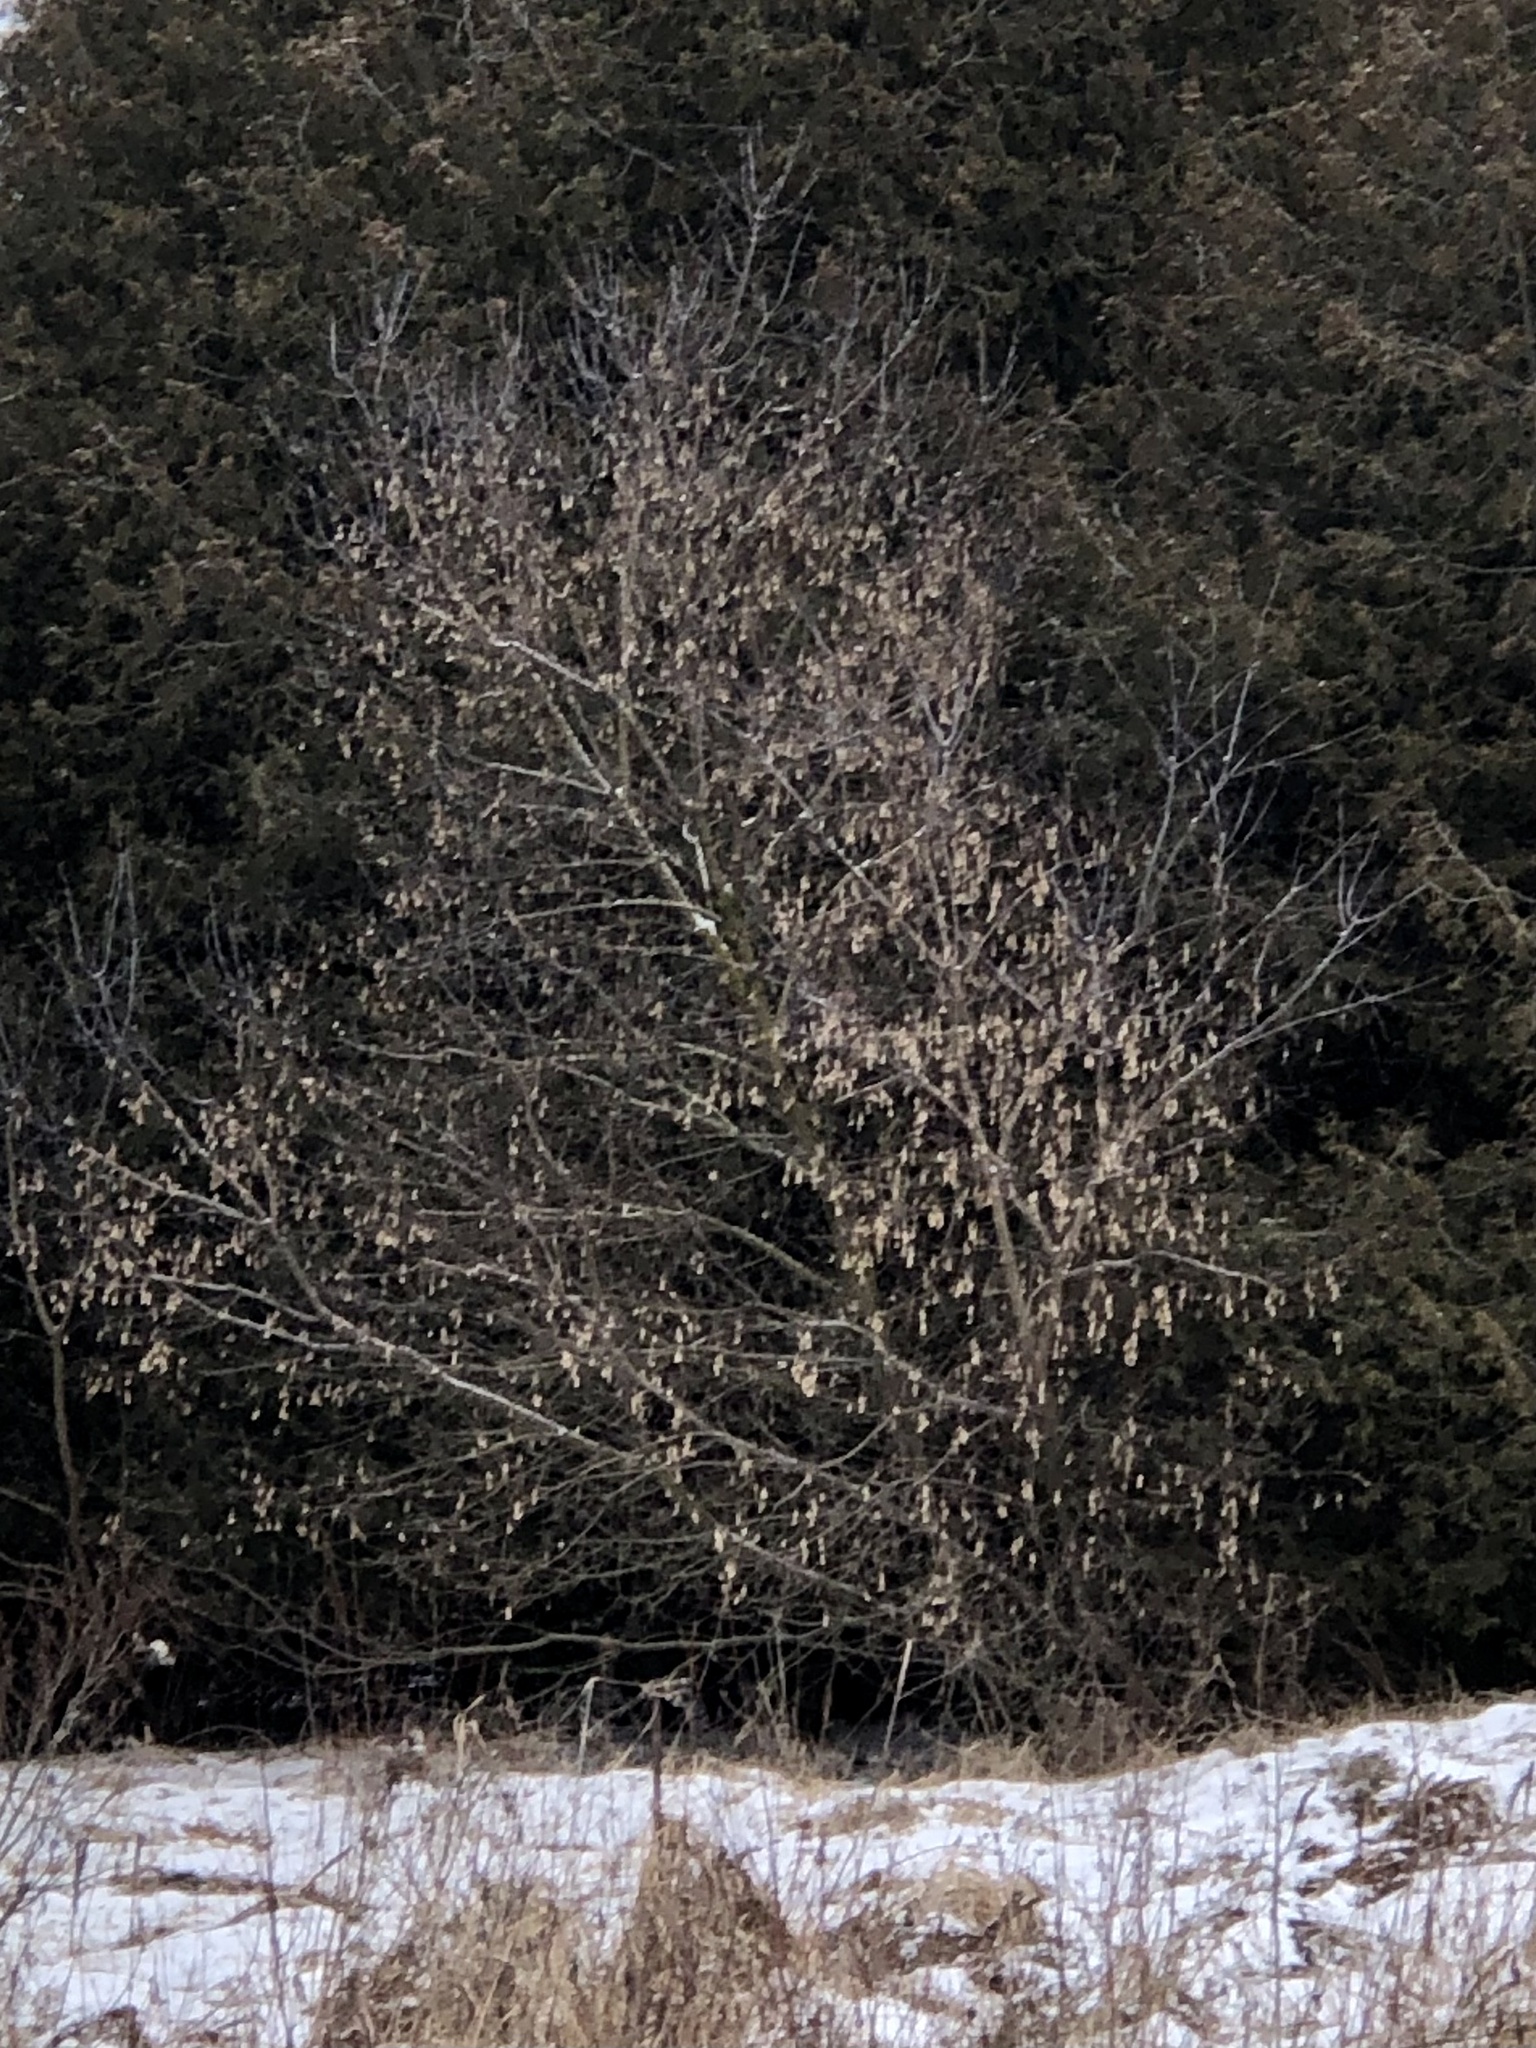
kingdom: Plantae
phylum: Tracheophyta
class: Magnoliopsida
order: Sapindales
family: Sapindaceae
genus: Acer
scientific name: Acer negundo
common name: Ashleaf maple
